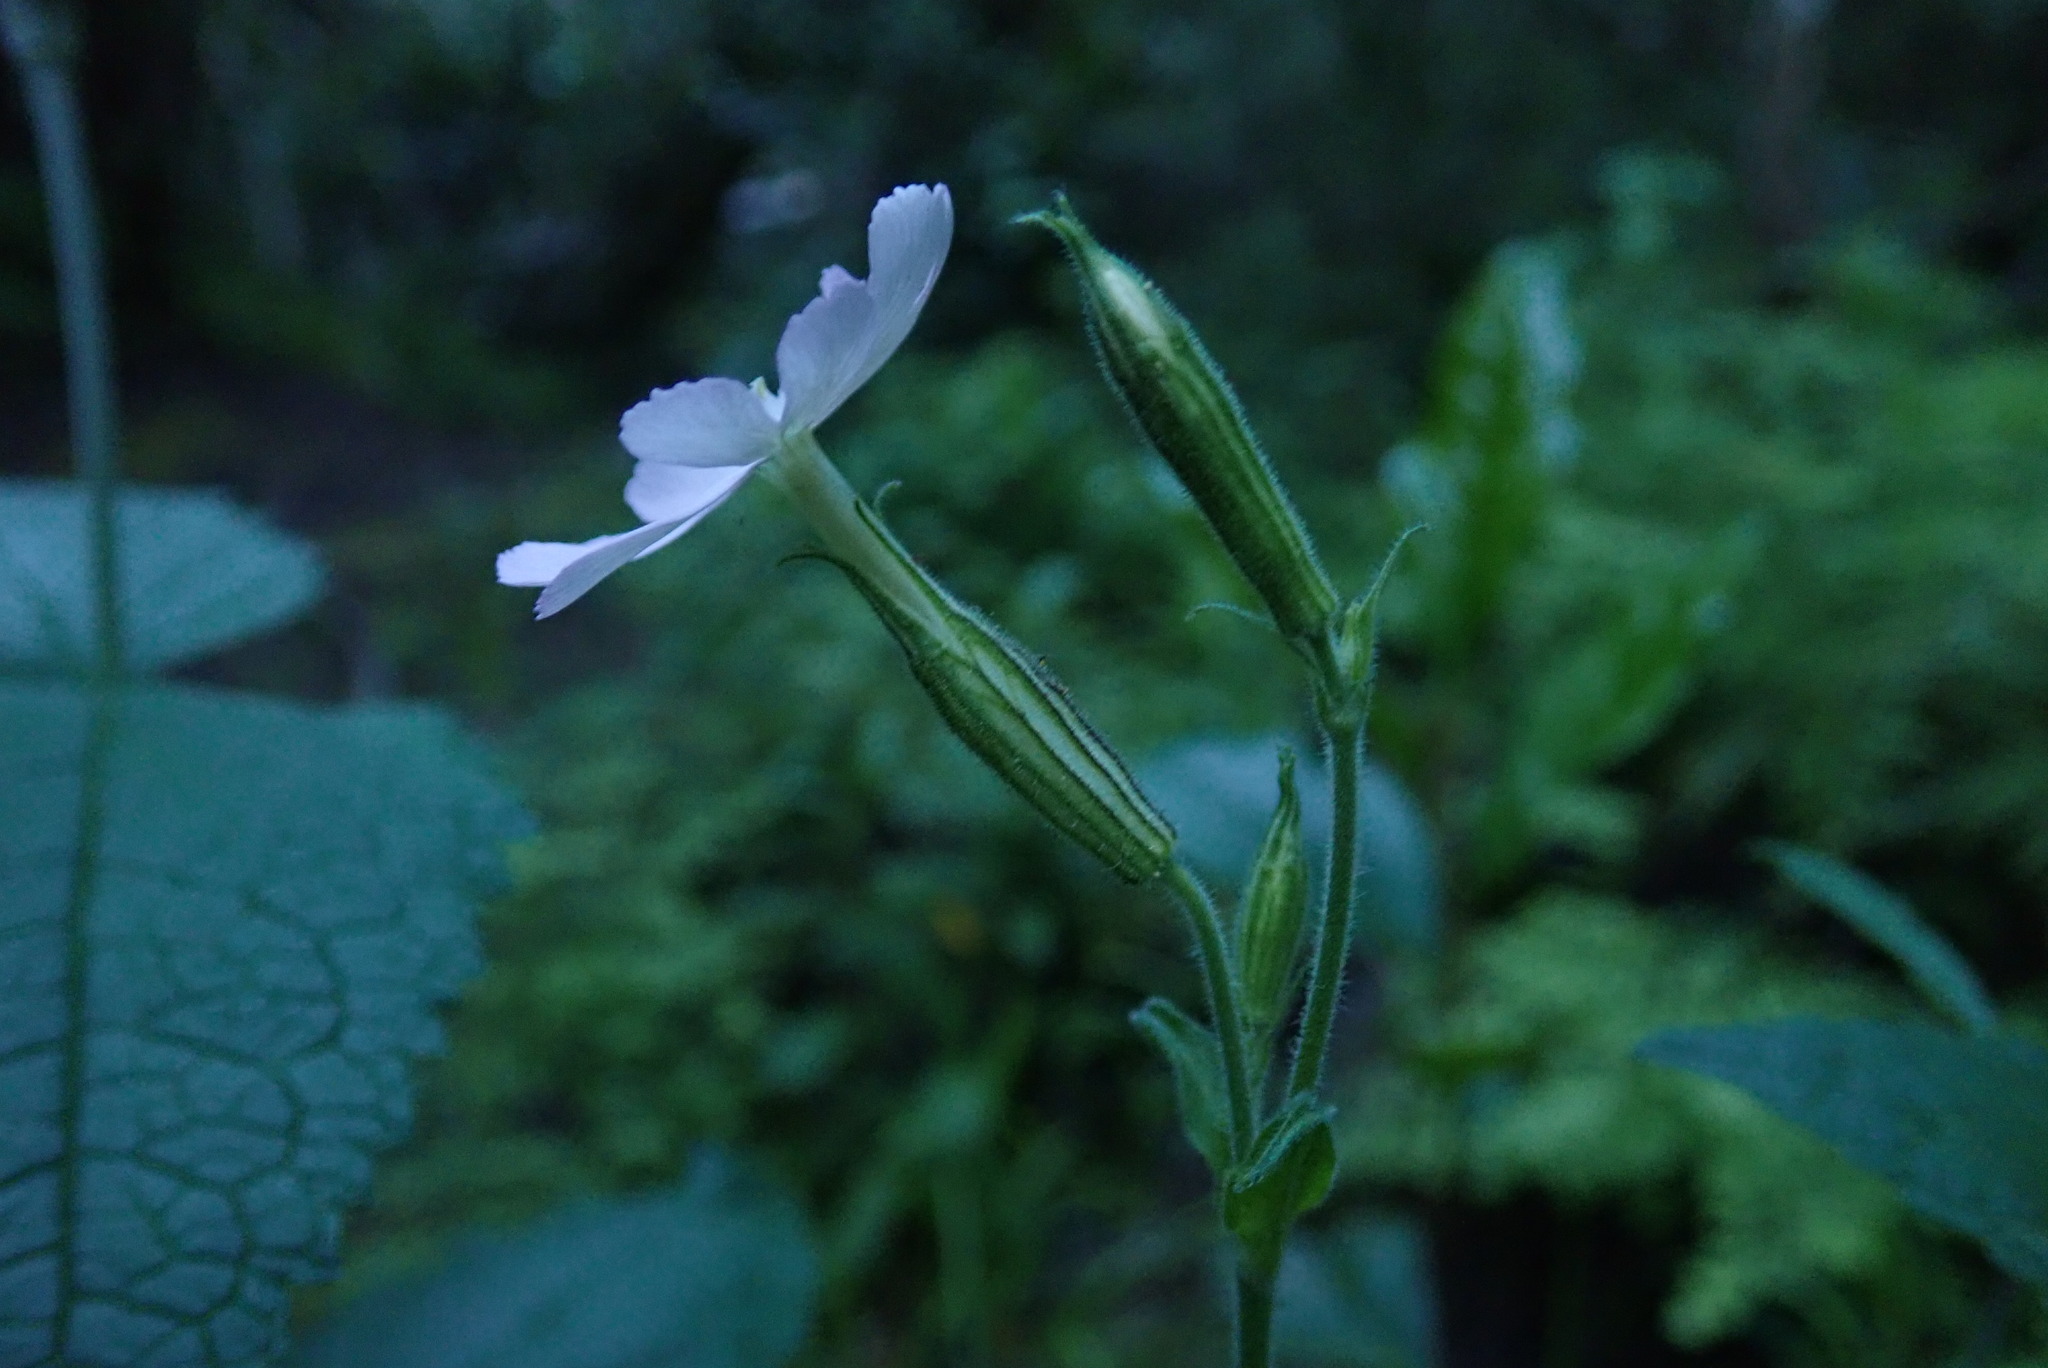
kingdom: Plantae
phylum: Tracheophyta
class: Magnoliopsida
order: Caryophyllales
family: Caryophyllaceae
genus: Silene
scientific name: Silene undulata
